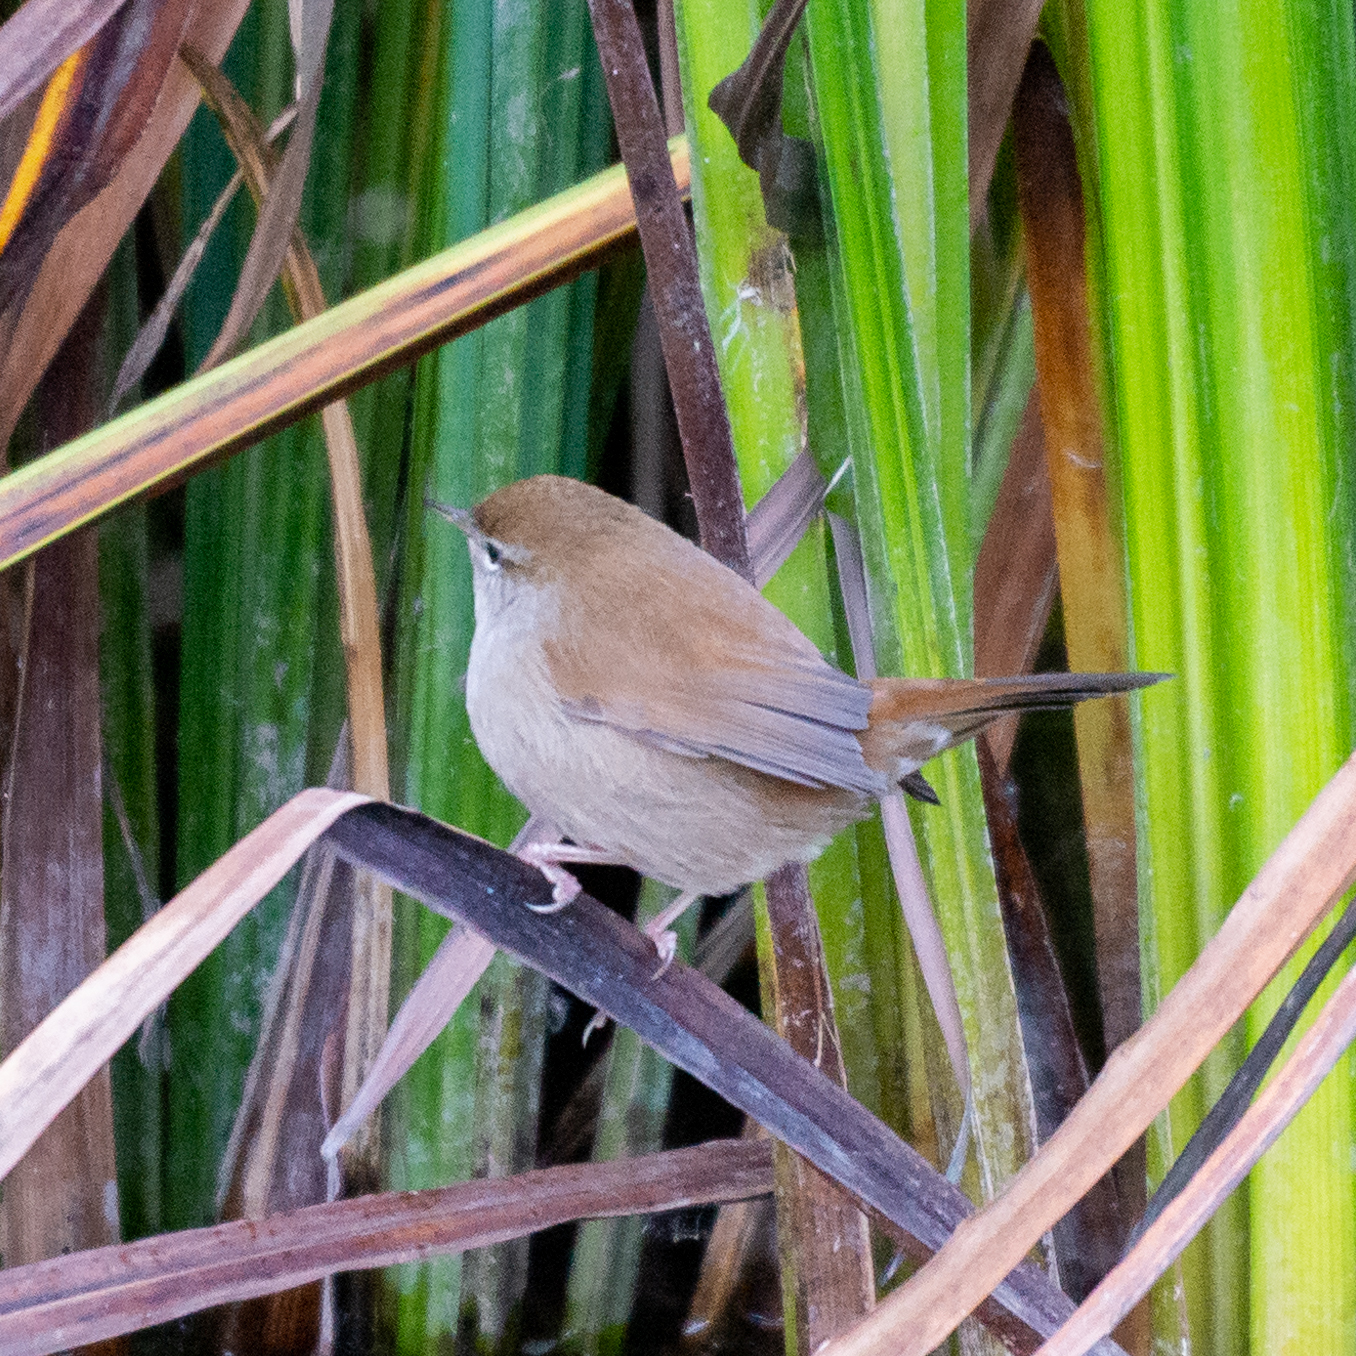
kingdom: Animalia
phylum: Chordata
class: Aves
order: Passeriformes
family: Cettiidae
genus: Cettia
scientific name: Cettia cetti
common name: Cetti's warbler
